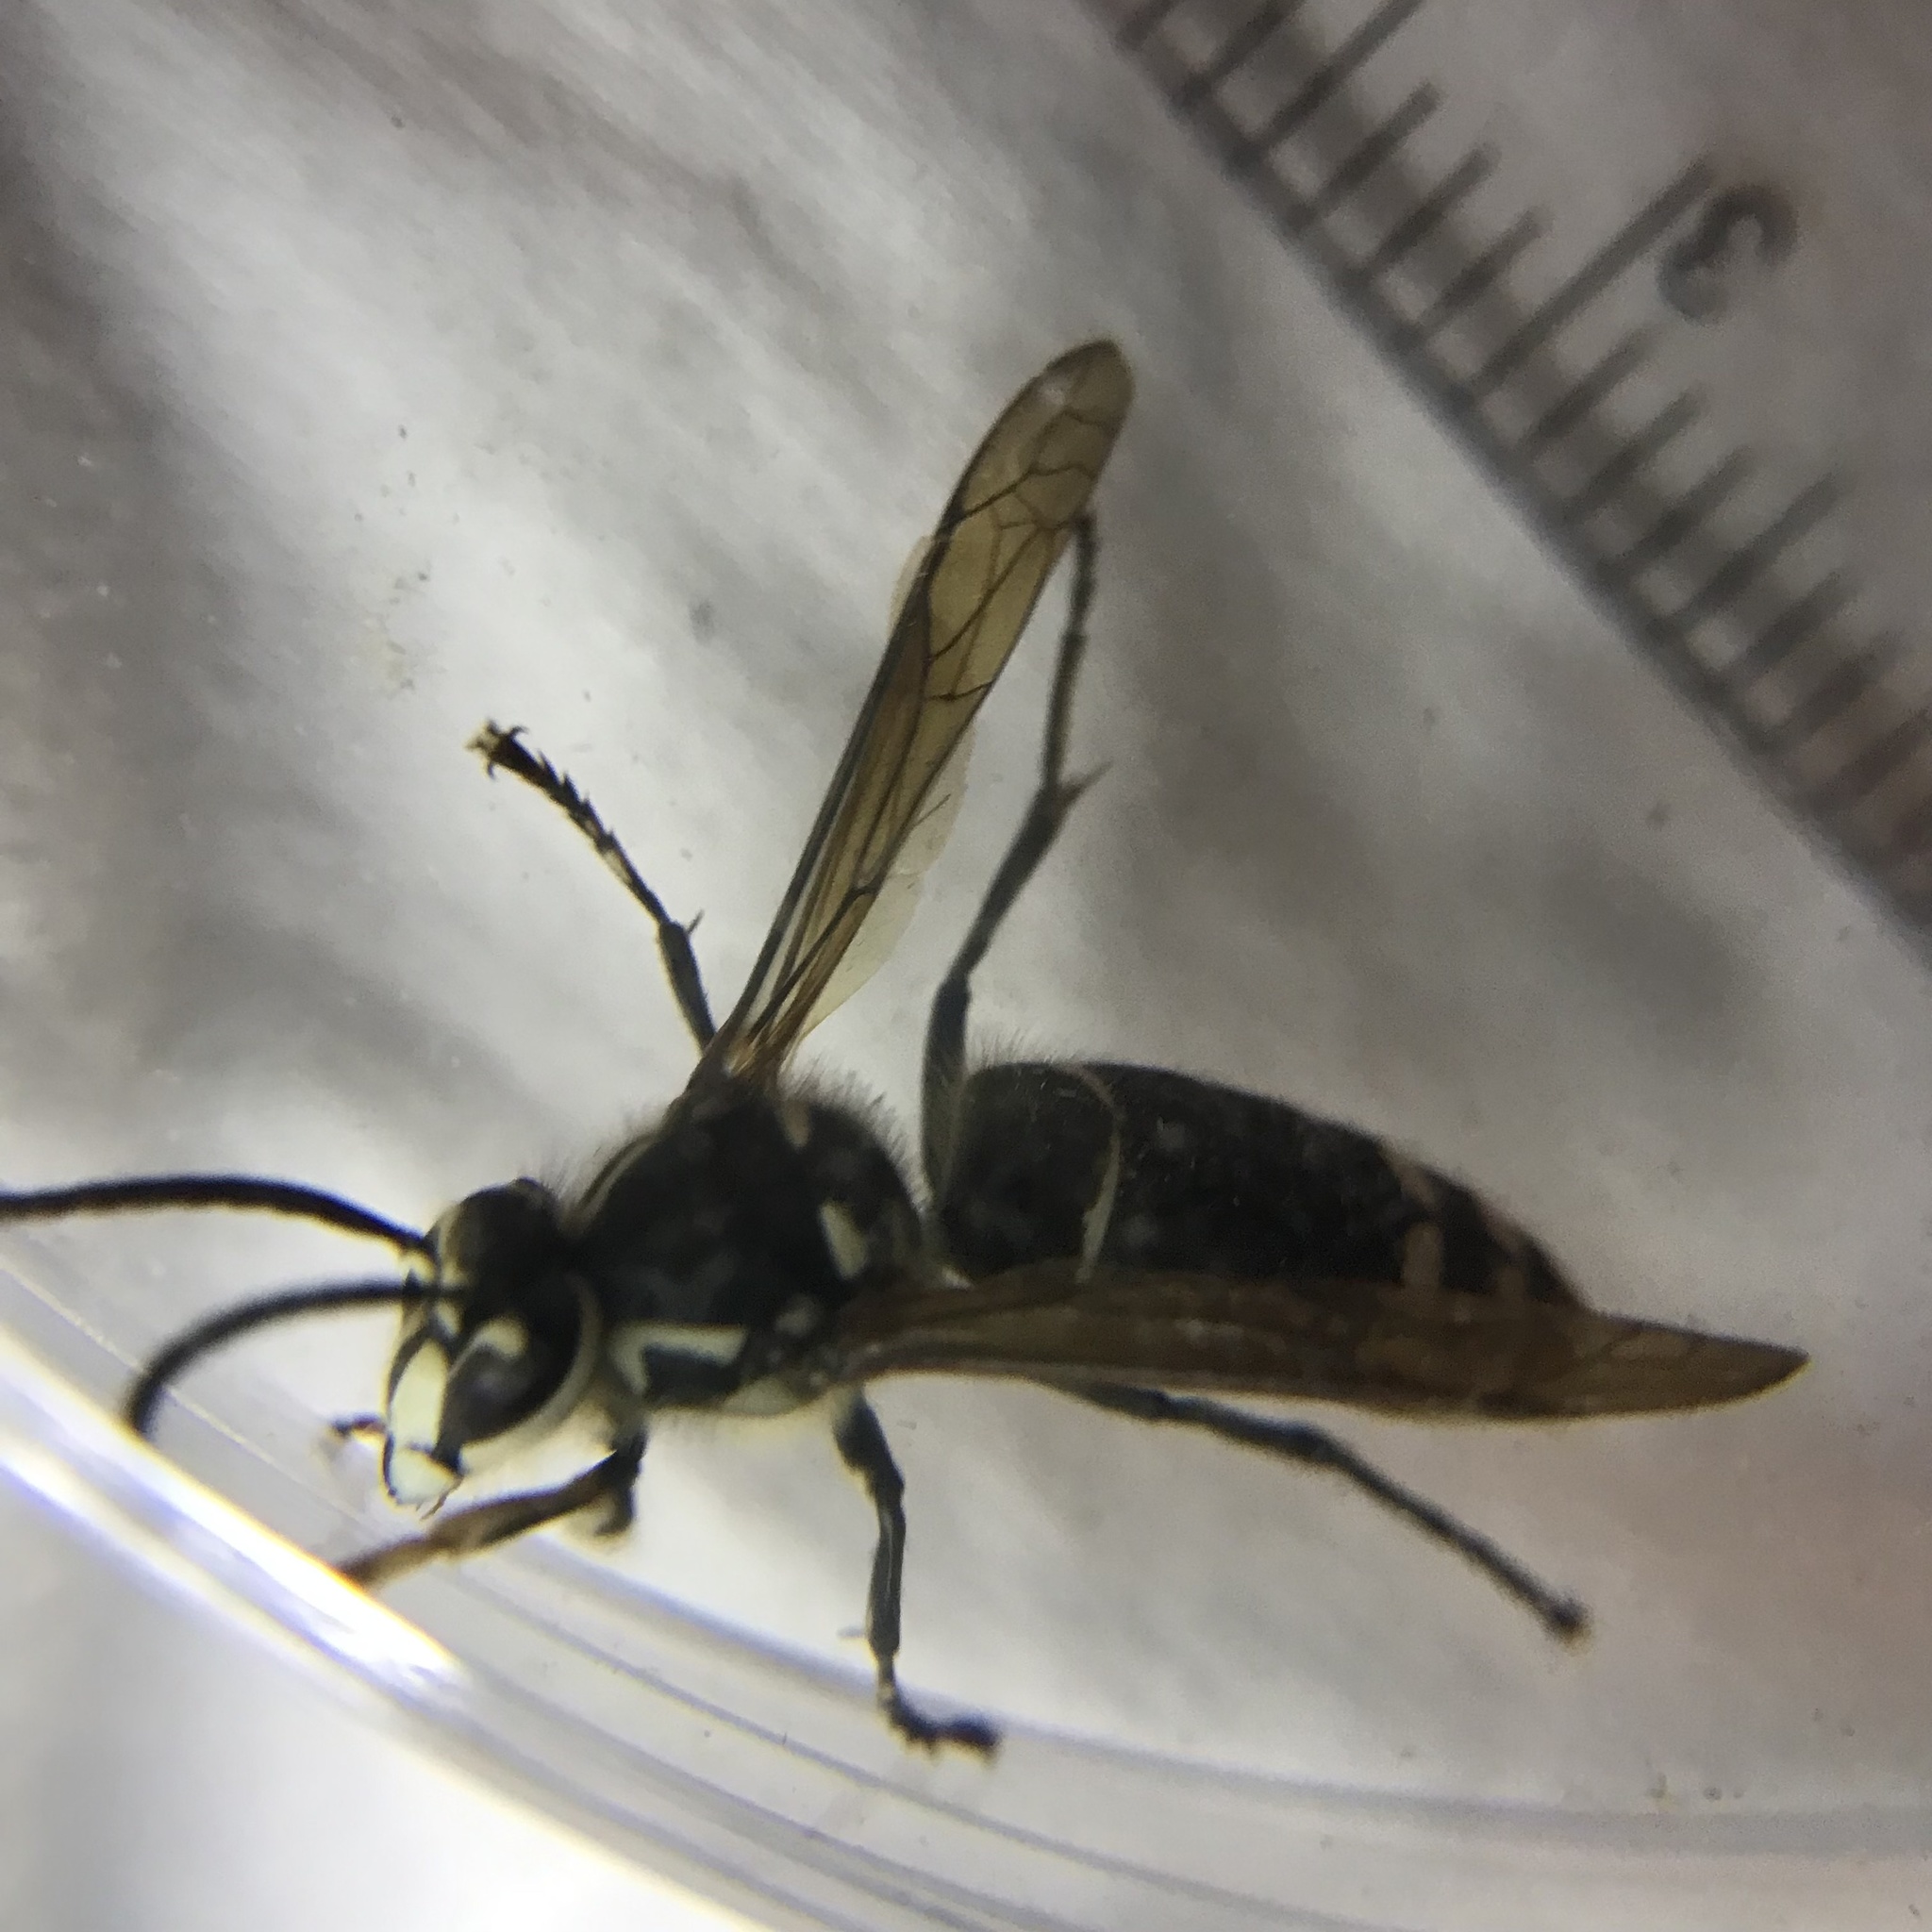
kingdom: Animalia
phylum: Arthropoda
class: Insecta
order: Hymenoptera
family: Vespidae
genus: Dolichovespula
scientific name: Dolichovespula maculata
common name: Bald-faced hornet
